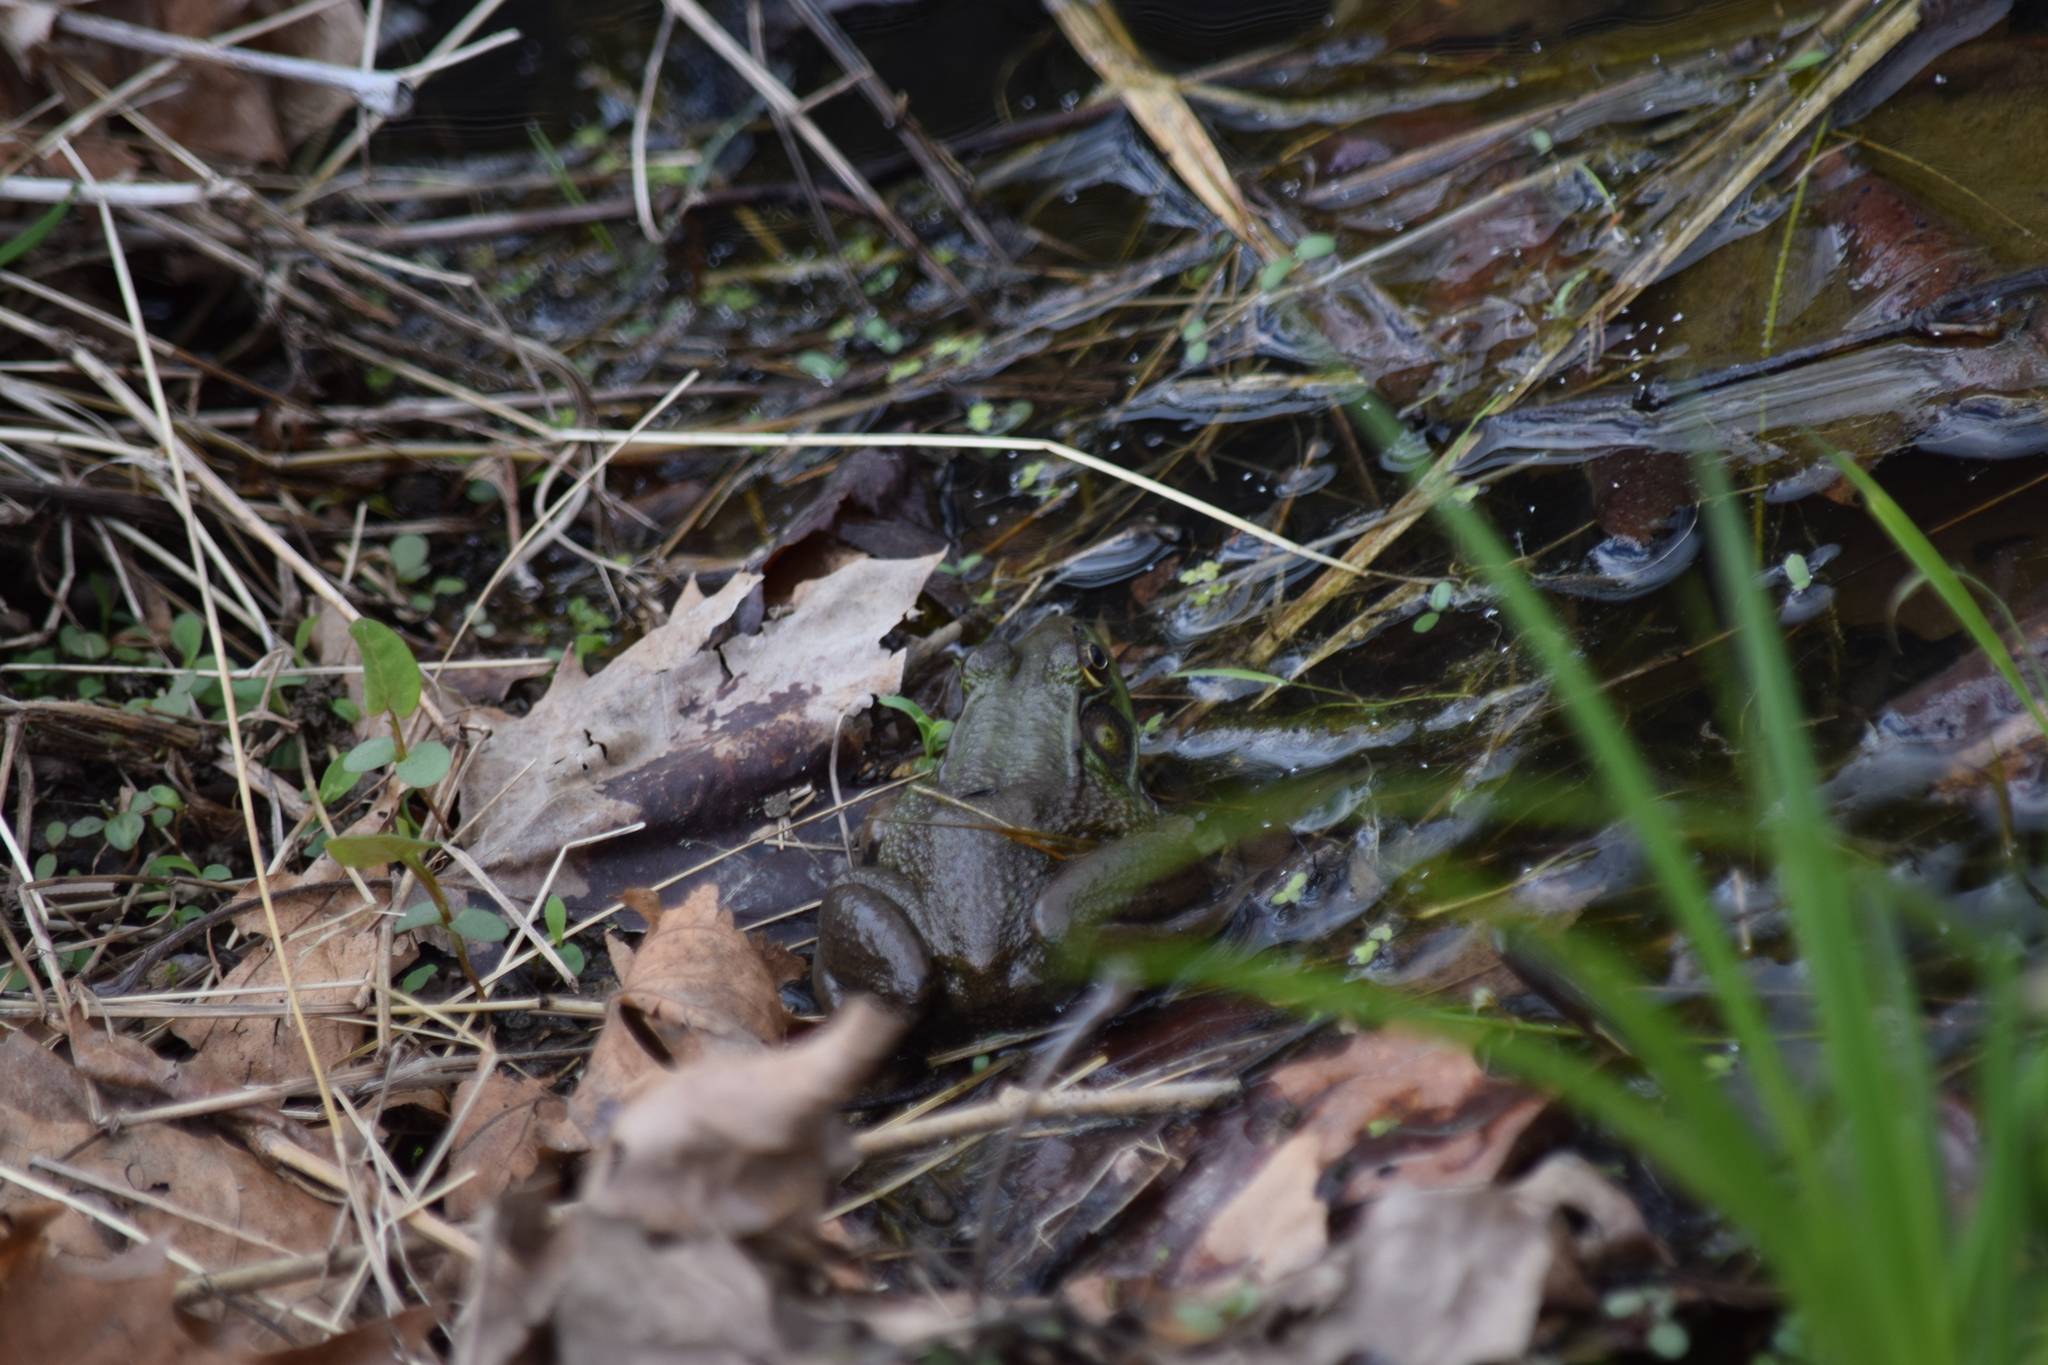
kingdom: Animalia
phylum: Chordata
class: Amphibia
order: Anura
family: Ranidae
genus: Lithobates
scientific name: Lithobates clamitans
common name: Green frog
